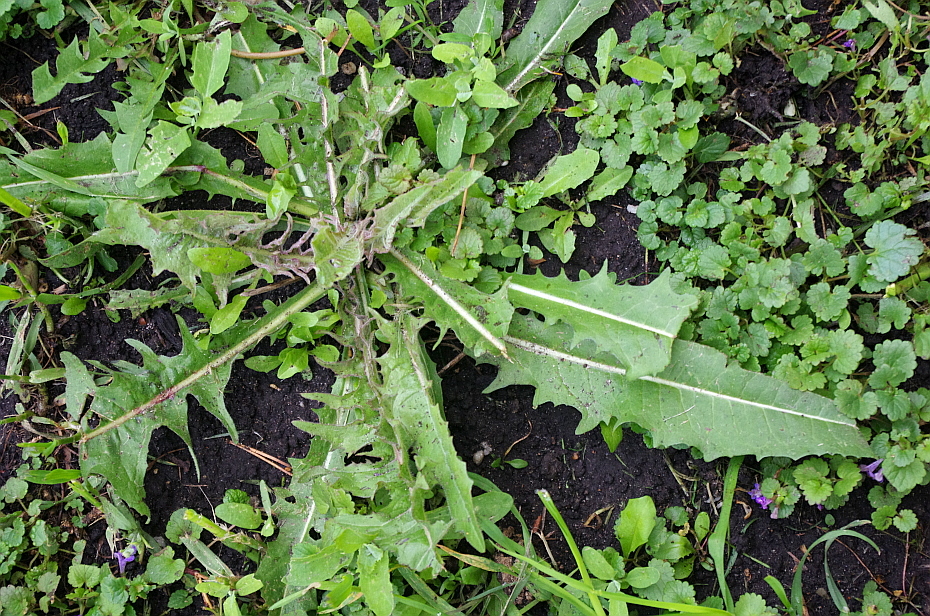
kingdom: Plantae
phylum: Tracheophyta
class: Magnoliopsida
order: Asterales
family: Asteraceae
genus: Cichorium
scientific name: Cichorium intybus
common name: Chicory
